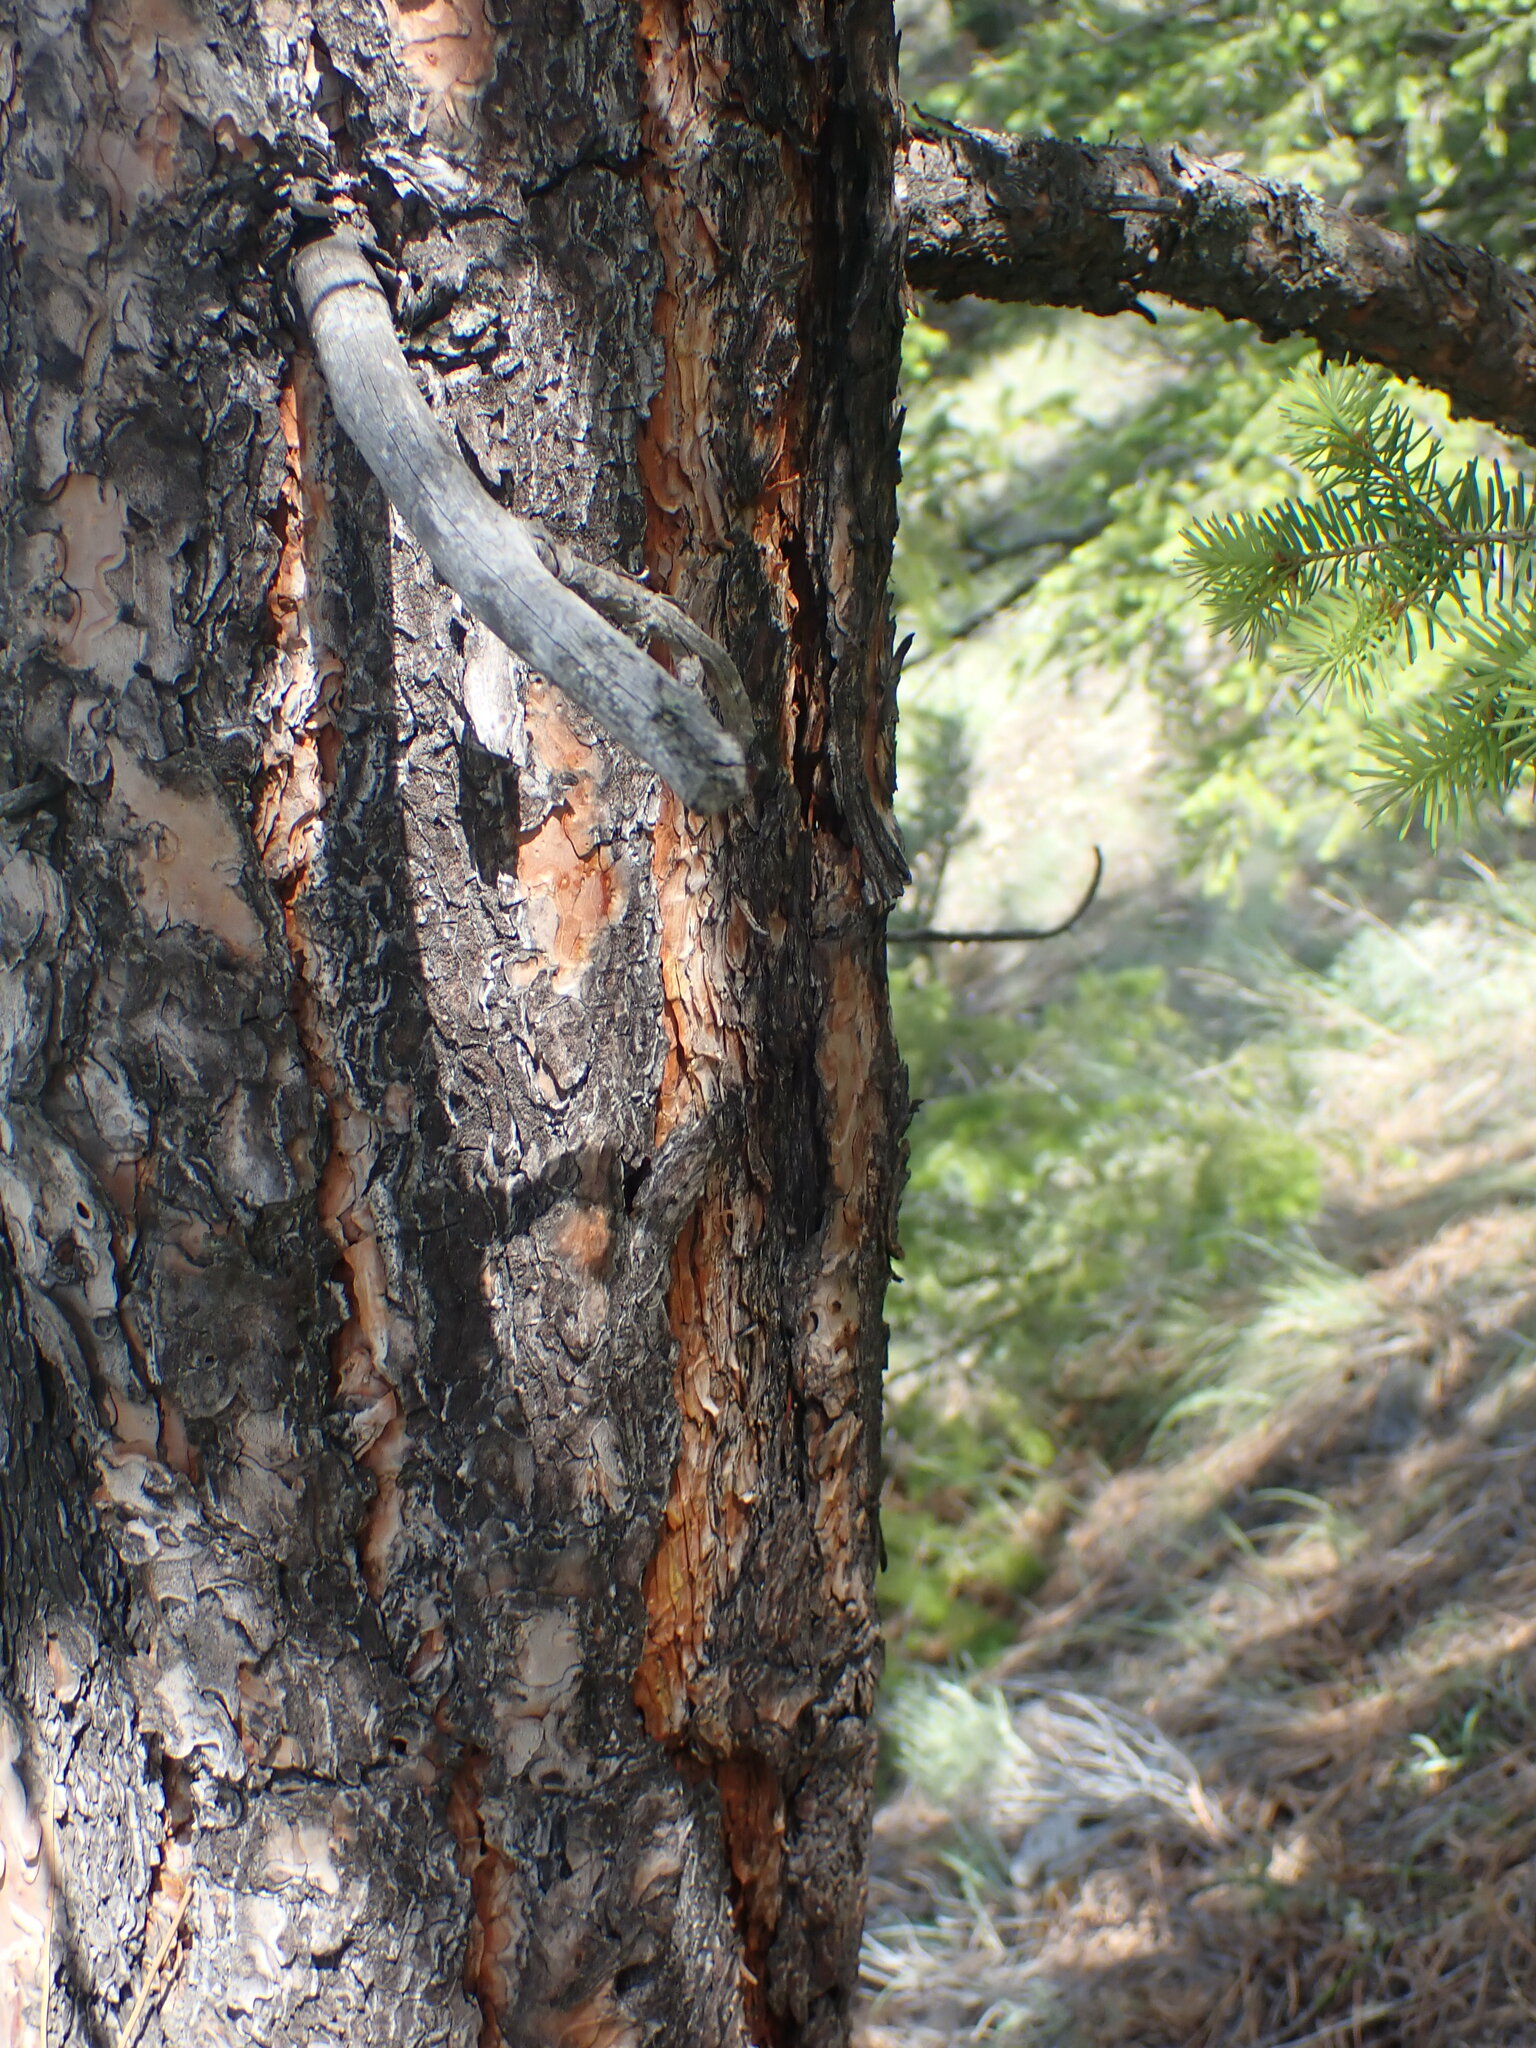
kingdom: Plantae
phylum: Tracheophyta
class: Pinopsida
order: Pinales
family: Pinaceae
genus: Pinus
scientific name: Pinus ponderosa
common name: Western yellow-pine
